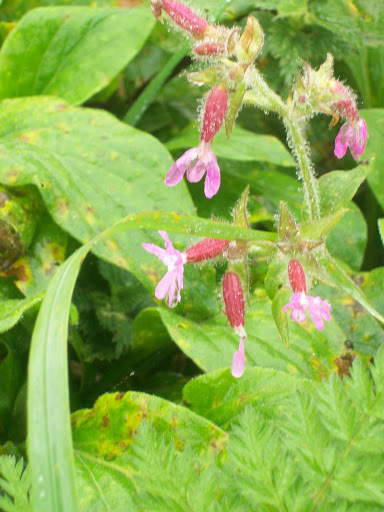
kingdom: Plantae
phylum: Tracheophyta
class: Magnoliopsida
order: Caryophyllales
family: Caryophyllaceae
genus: Silene
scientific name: Silene dioica
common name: Red campion
